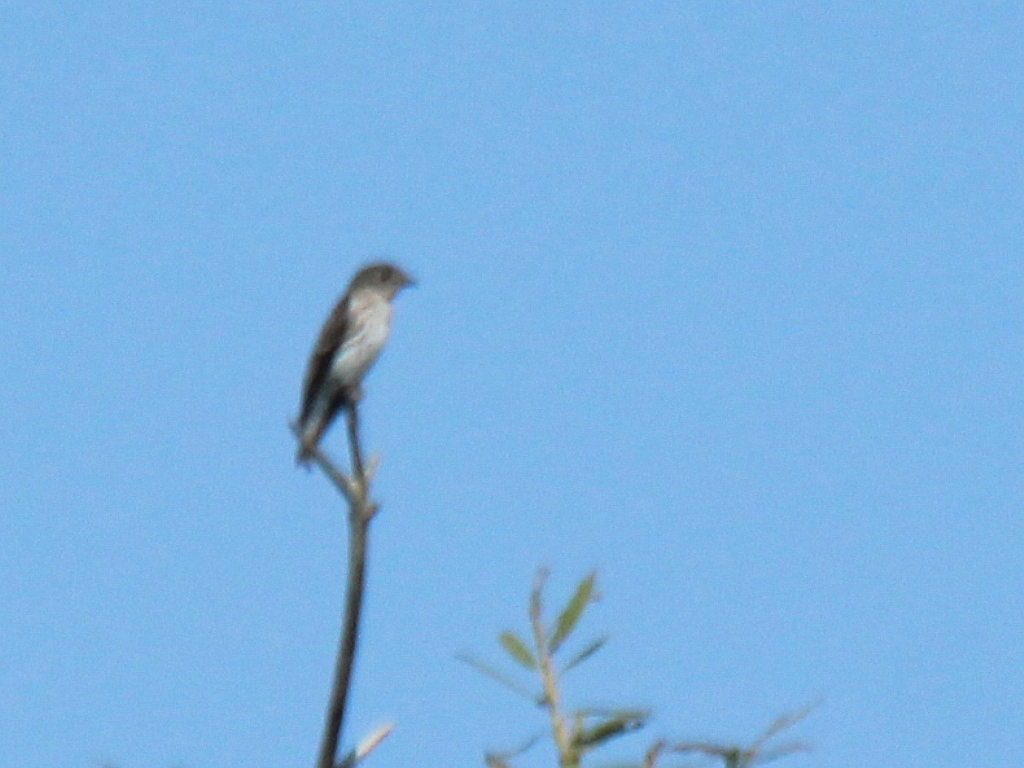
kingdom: Animalia
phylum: Chordata
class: Aves
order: Passeriformes
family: Muscicapidae
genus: Muscicapa
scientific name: Muscicapa griseisticta
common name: Gray-streaked flycatcher
